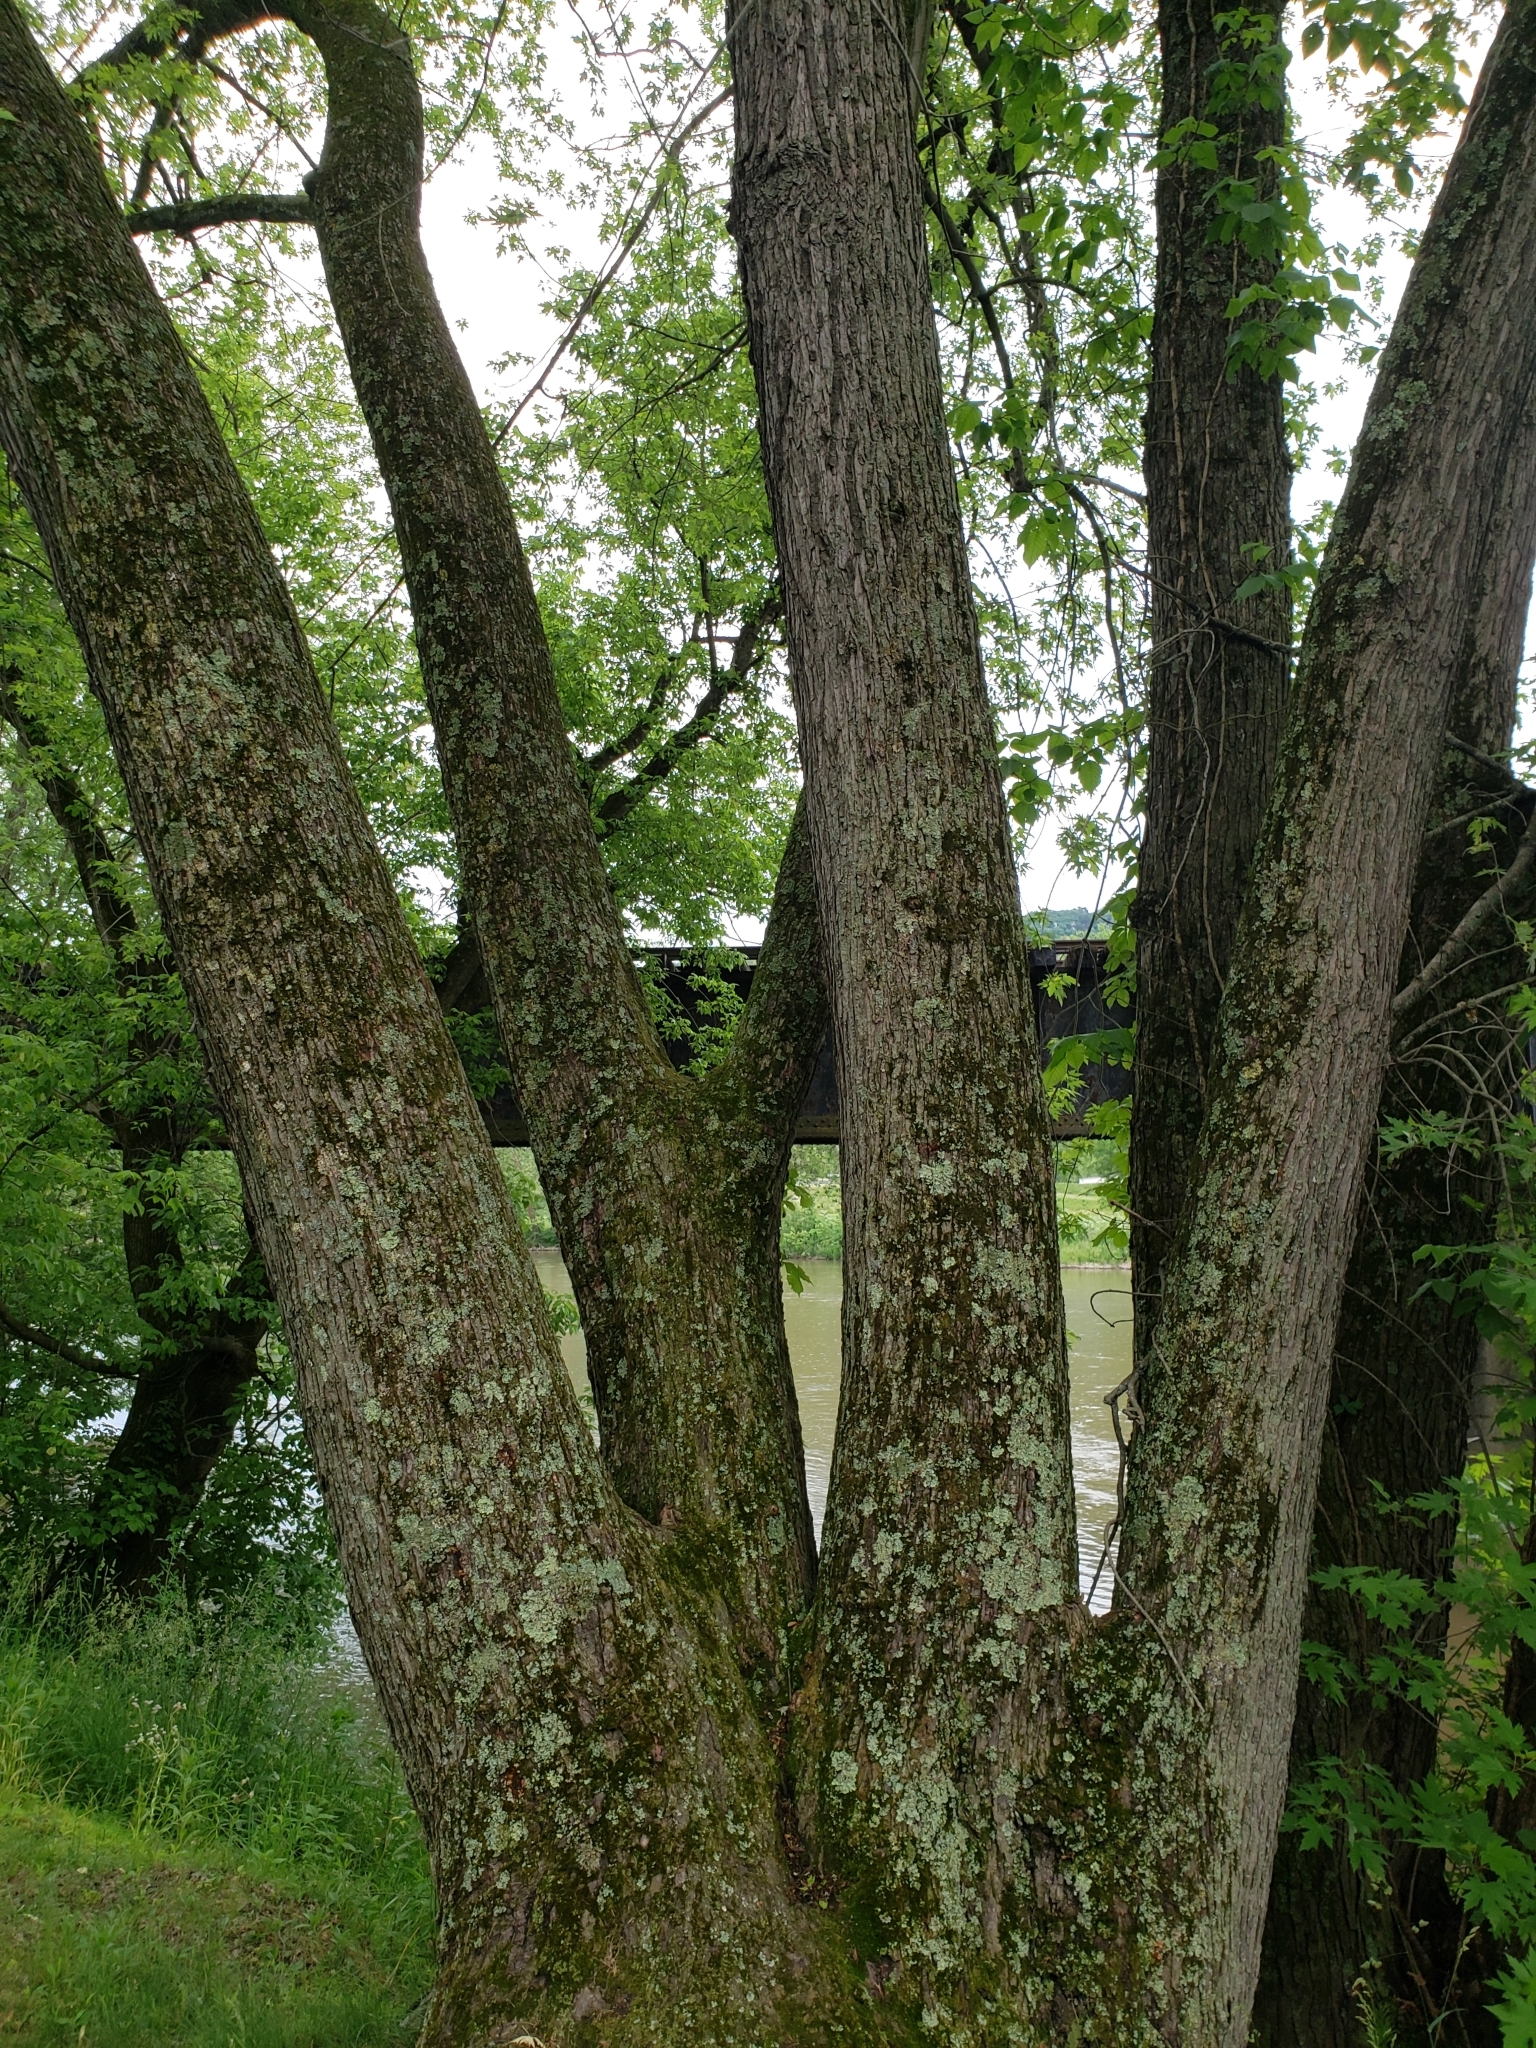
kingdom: Plantae
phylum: Tracheophyta
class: Magnoliopsida
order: Sapindales
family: Sapindaceae
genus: Acer
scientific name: Acer saccharinum
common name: Silver maple
